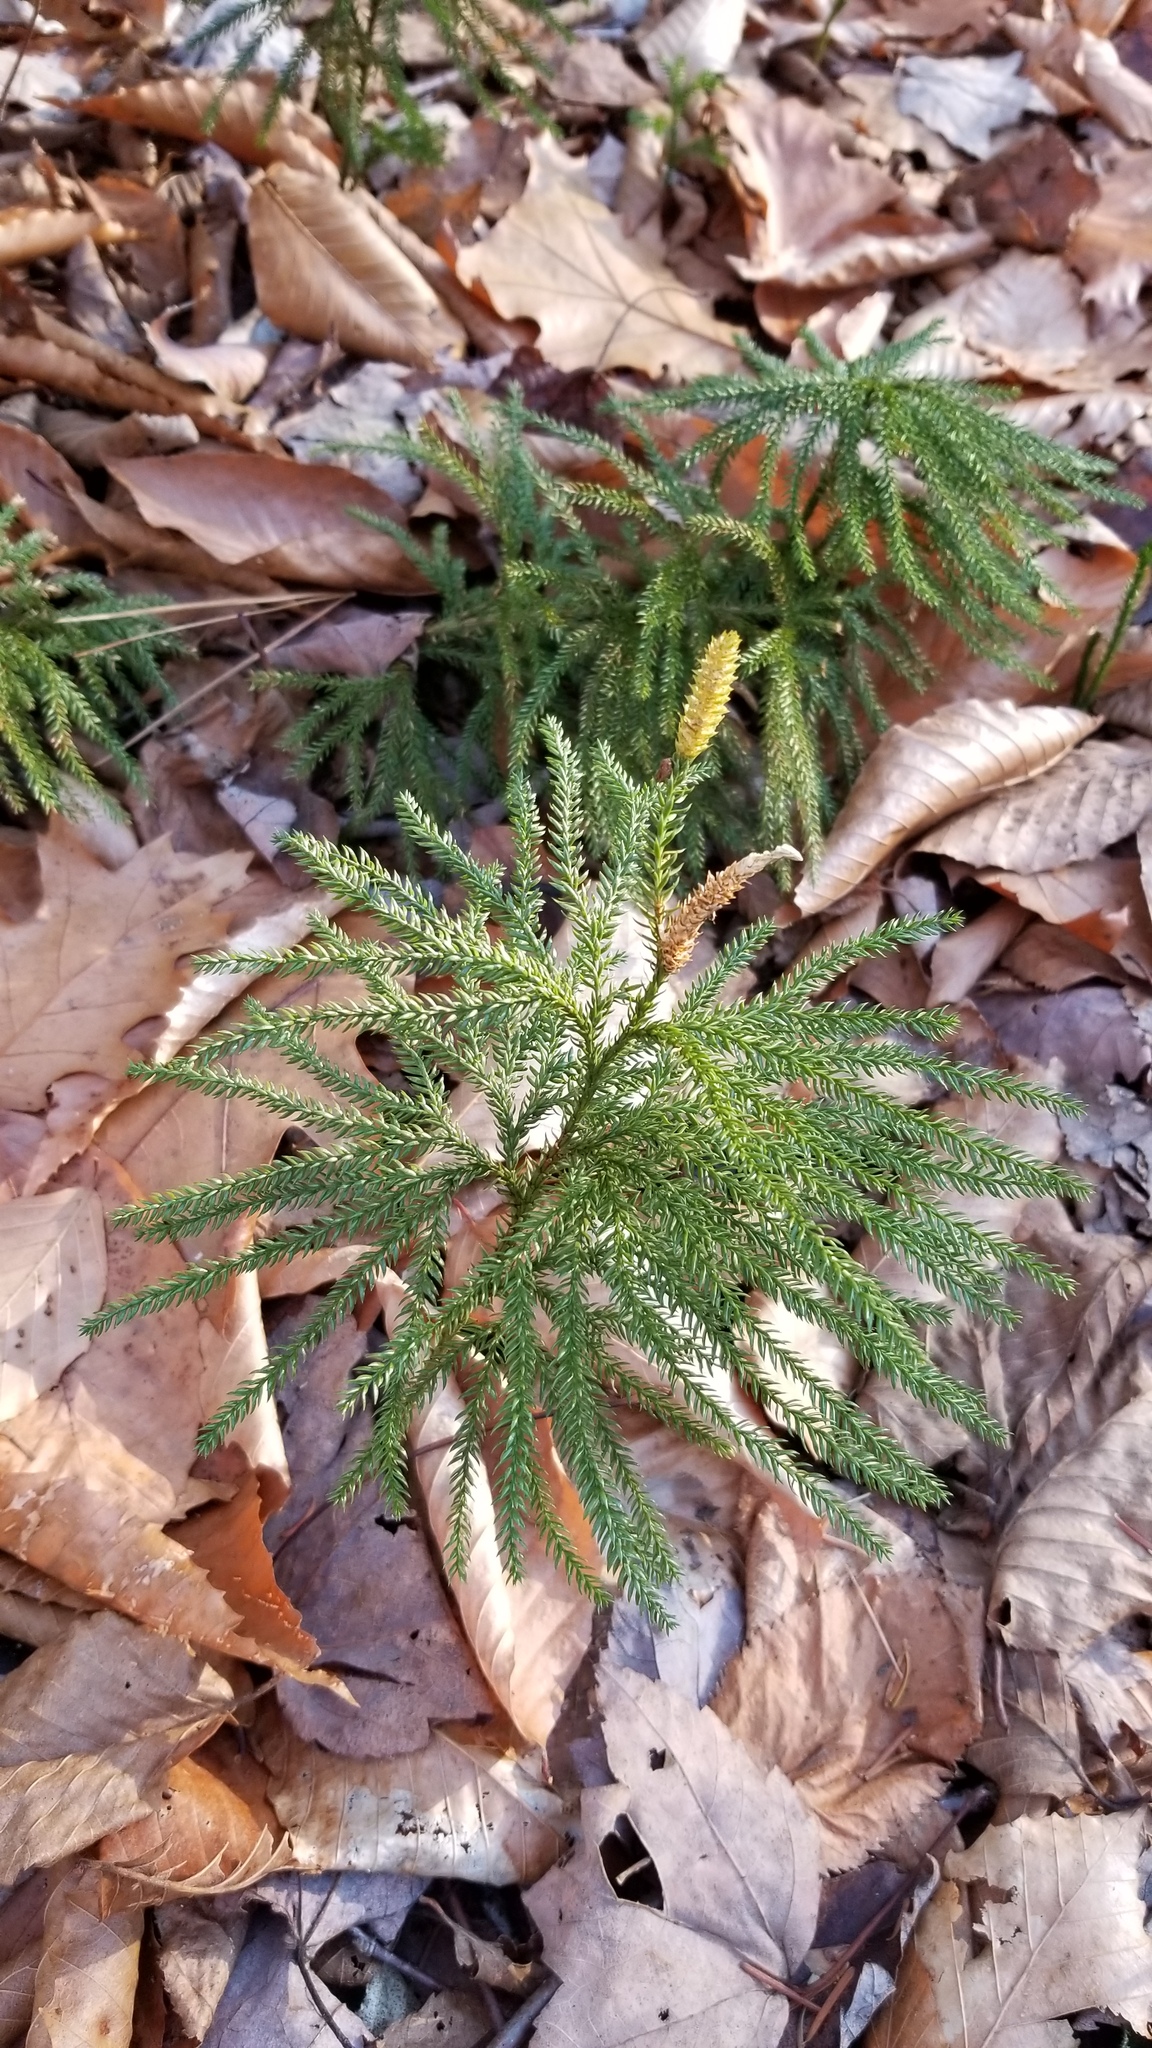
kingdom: Plantae
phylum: Tracheophyta
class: Lycopodiopsida
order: Lycopodiales
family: Lycopodiaceae
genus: Dendrolycopodium
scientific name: Dendrolycopodium dendroideum
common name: Northern tree-clubmoss
